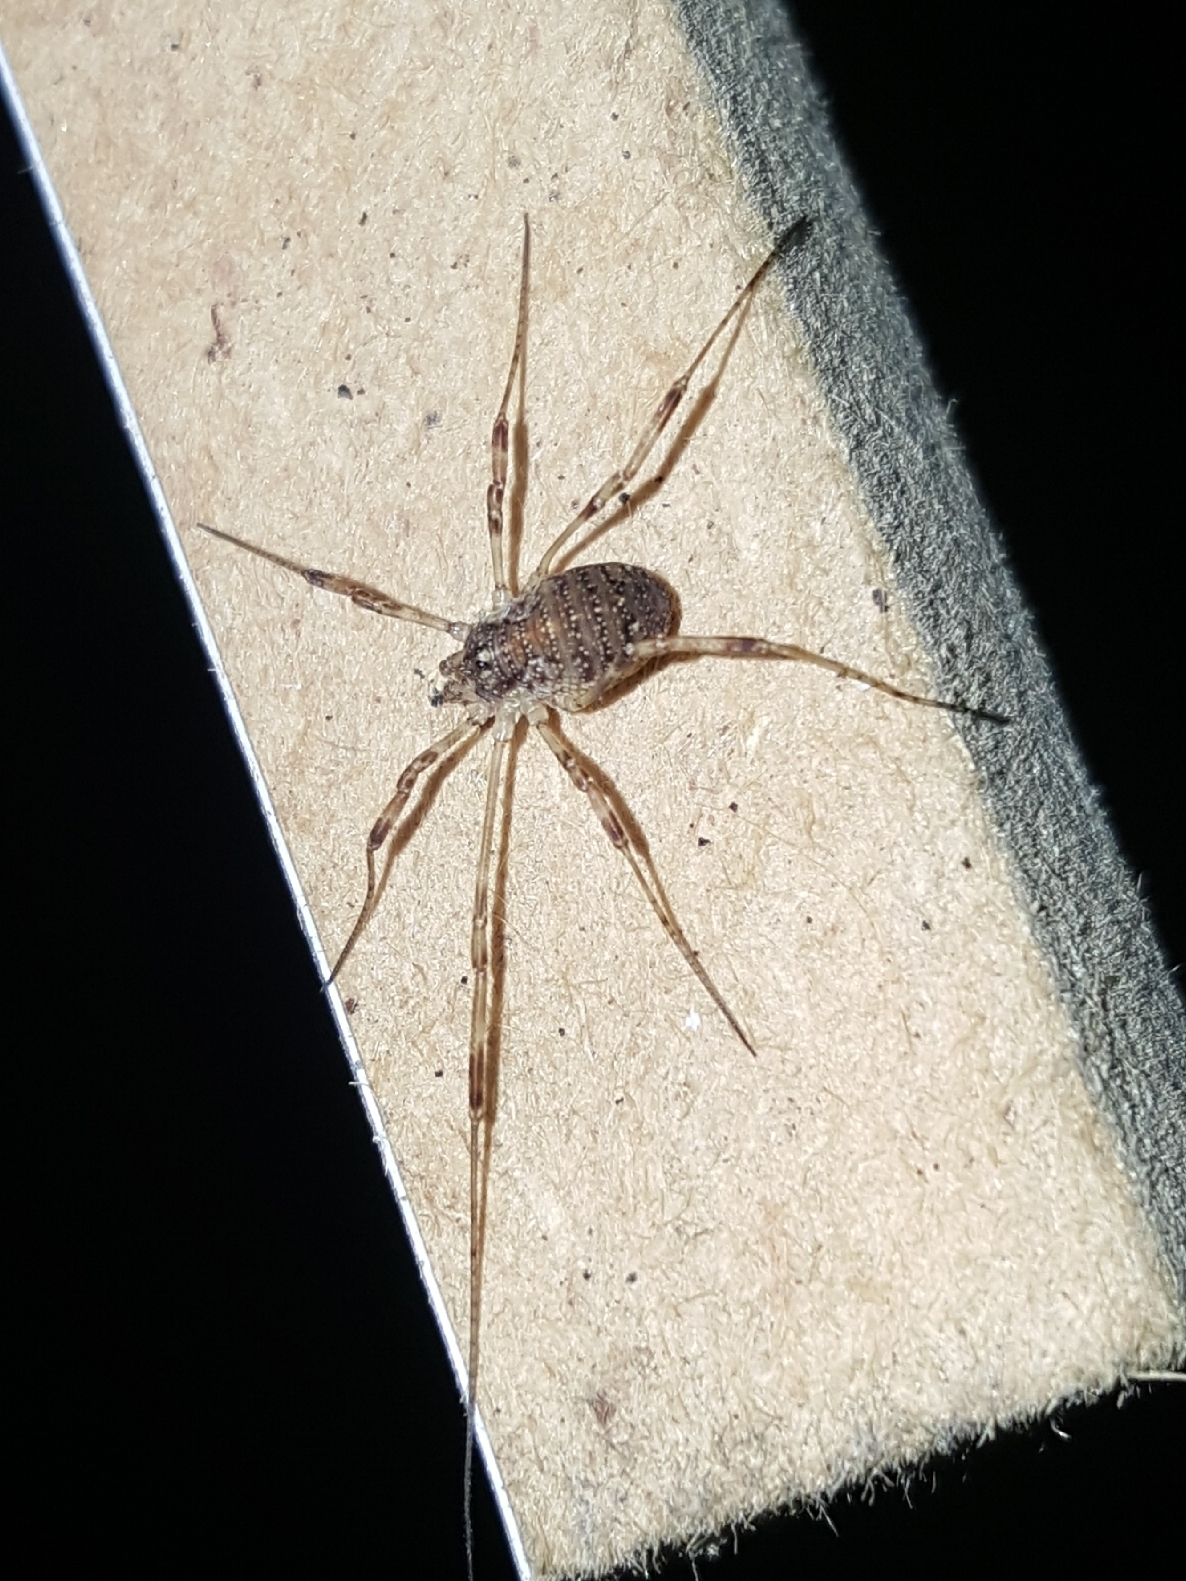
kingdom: Animalia
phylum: Arthropoda
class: Arachnida
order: Opiliones
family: Phalangiidae
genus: Paroligolophus
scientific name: Paroligolophus agrestis
